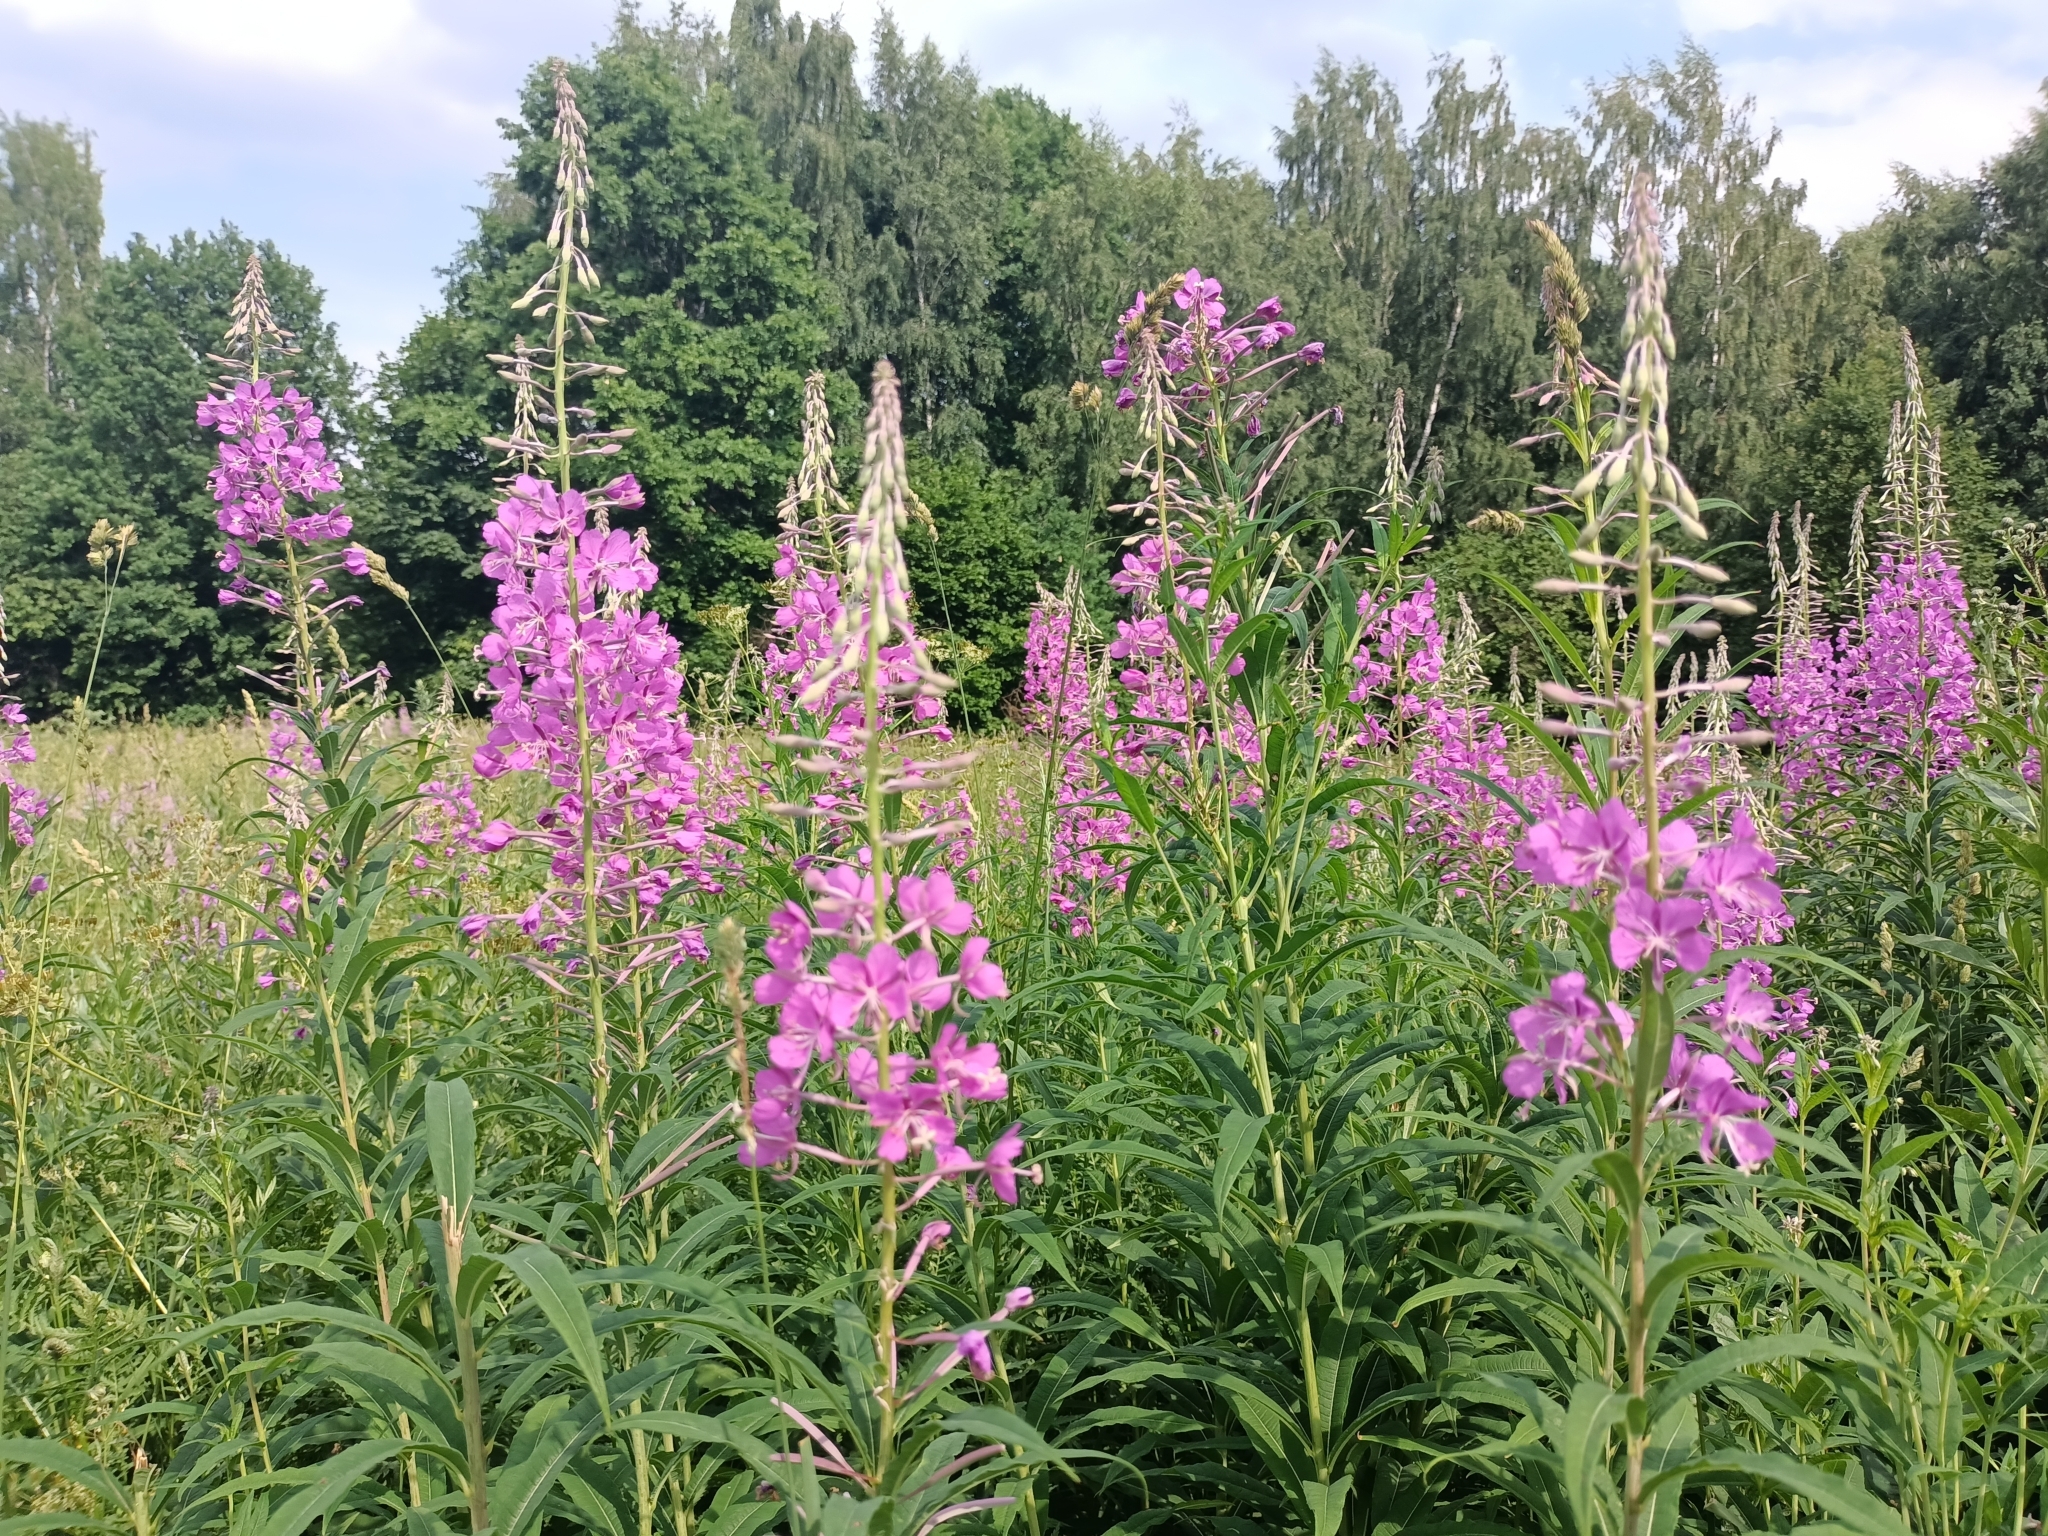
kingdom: Plantae
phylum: Tracheophyta
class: Magnoliopsida
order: Myrtales
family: Onagraceae
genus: Chamaenerion
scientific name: Chamaenerion angustifolium
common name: Fireweed
